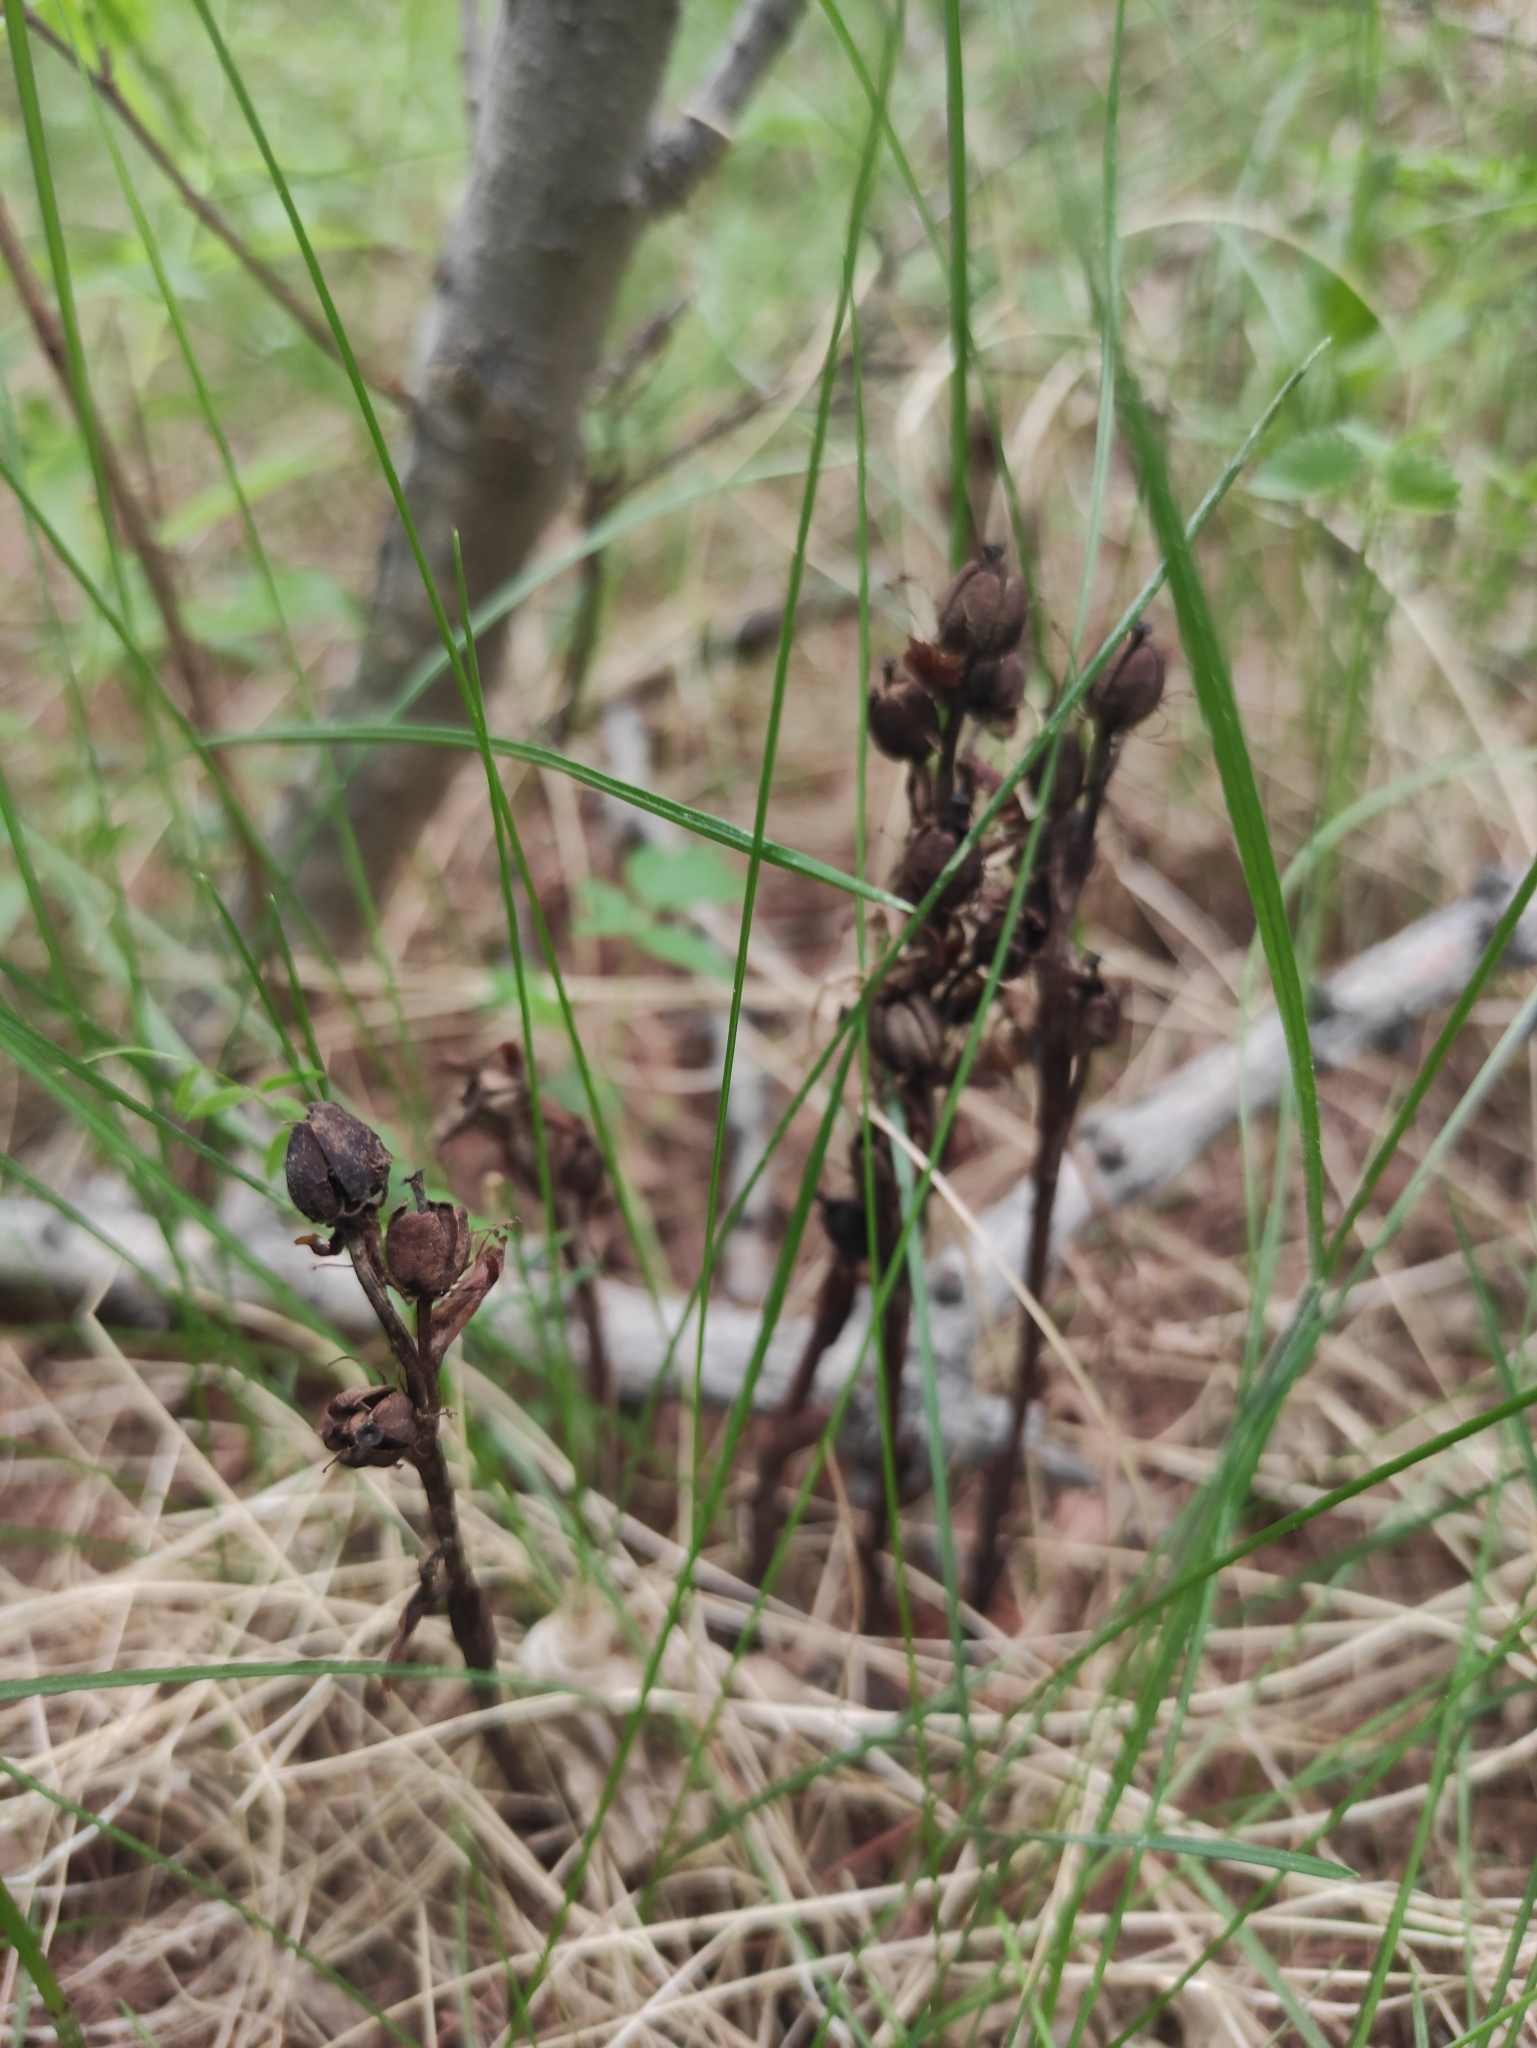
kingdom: Plantae
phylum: Tracheophyta
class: Magnoliopsida
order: Ericales
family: Ericaceae
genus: Hypopitys
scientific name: Hypopitys monotropa
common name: Yellow bird's-nest
